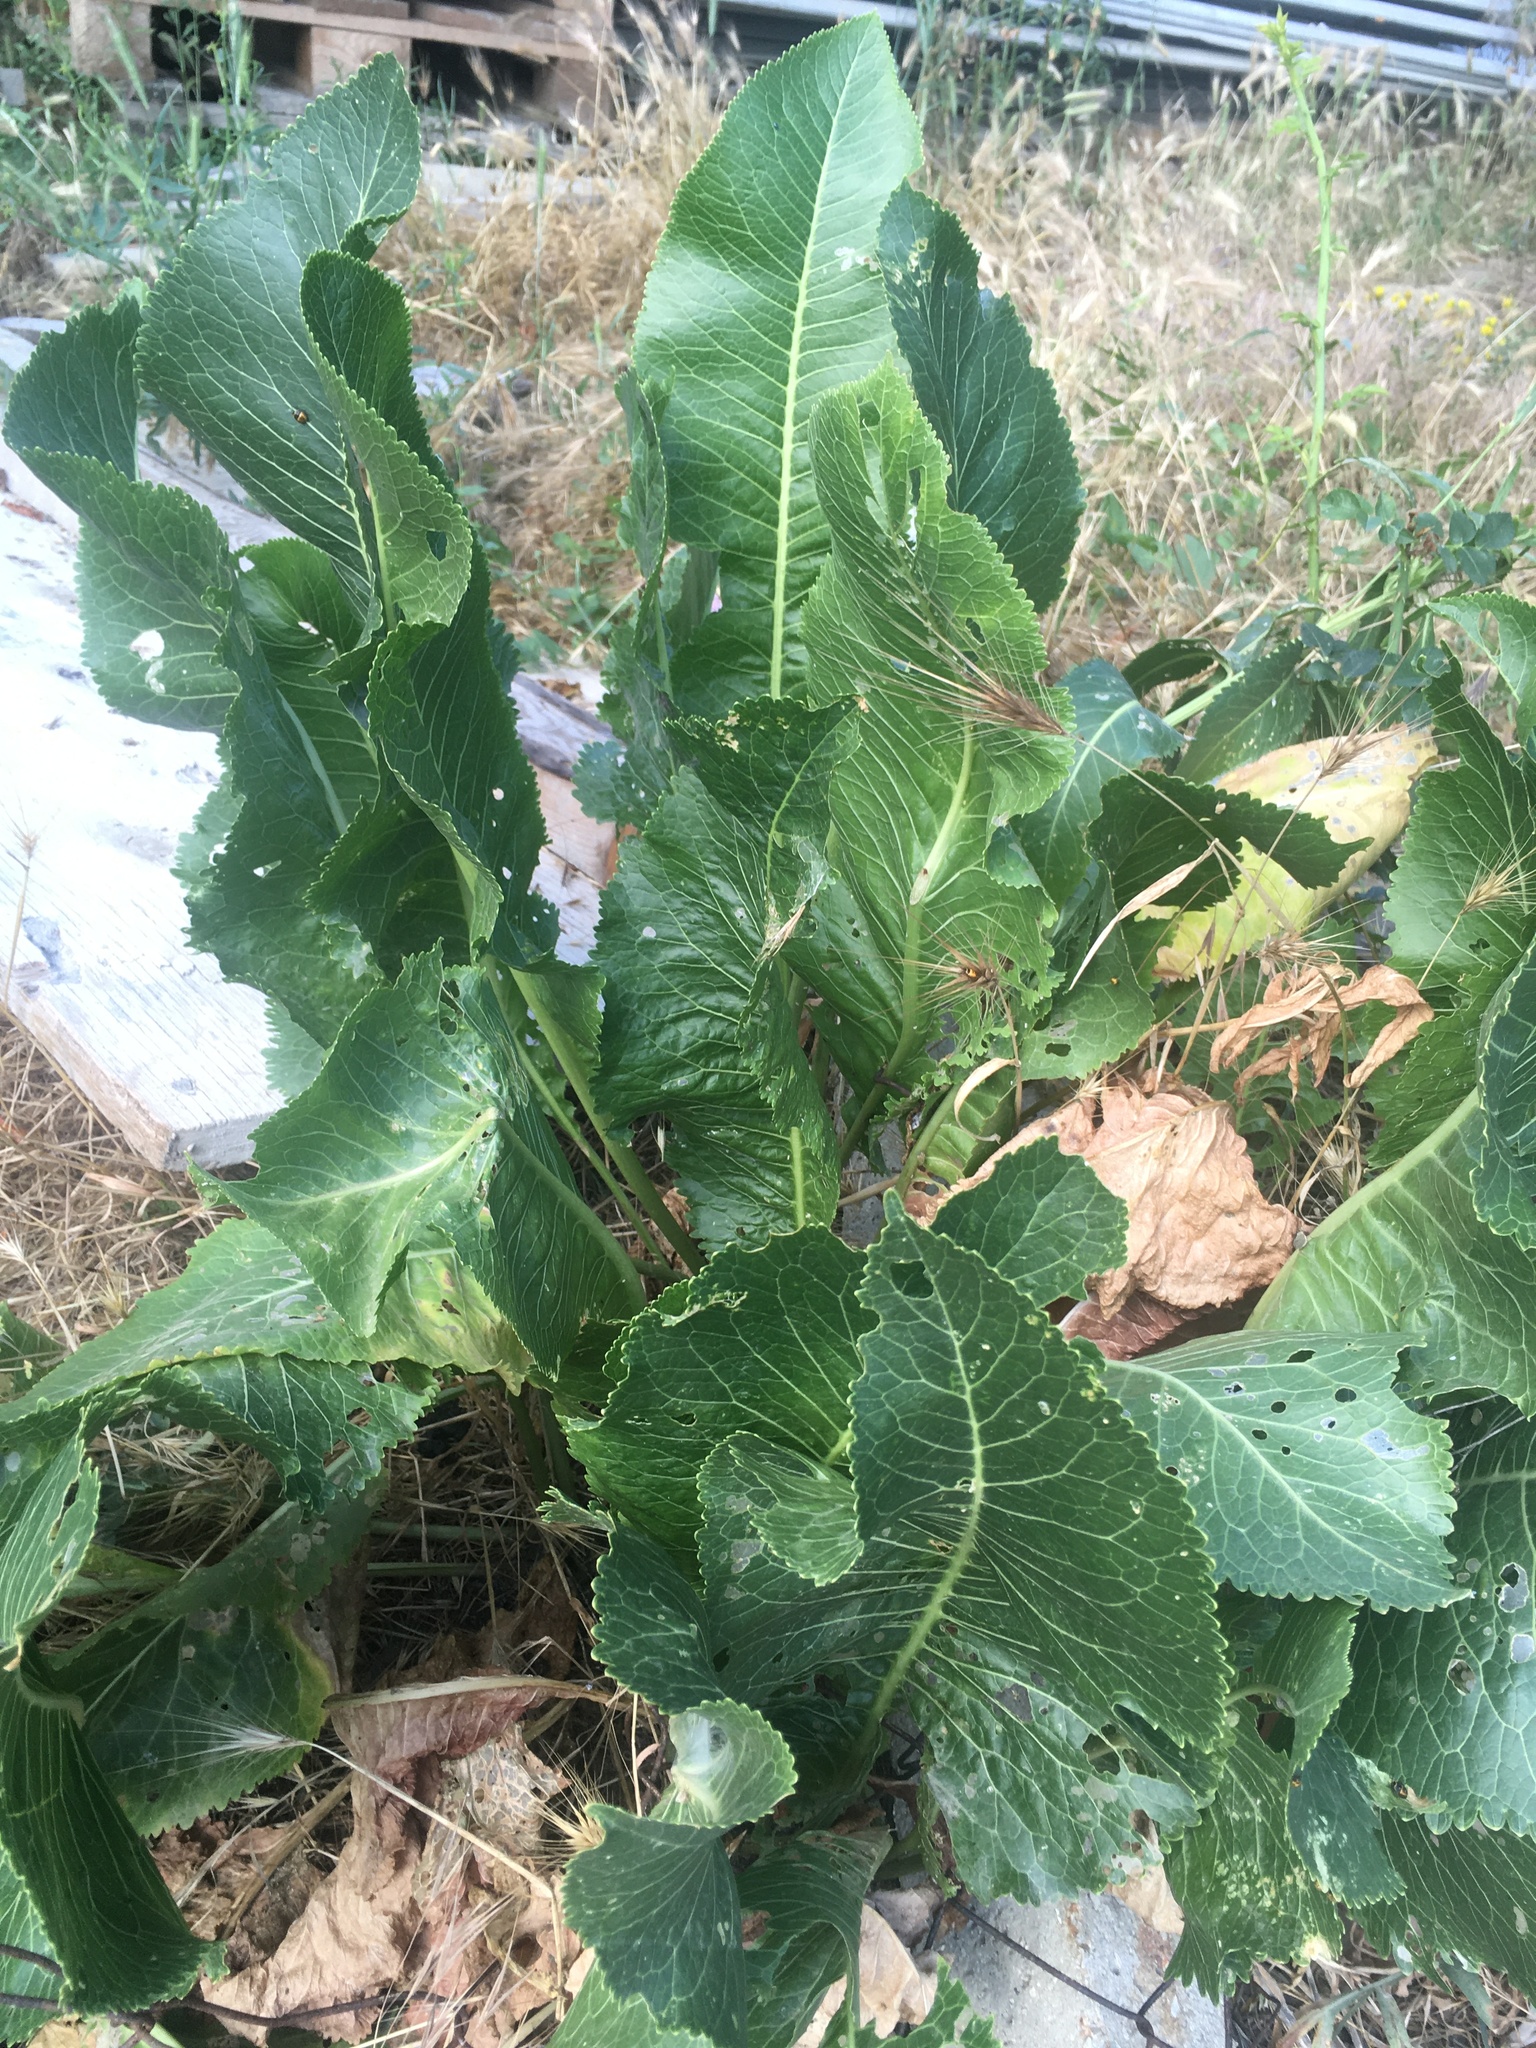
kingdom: Plantae
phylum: Tracheophyta
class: Magnoliopsida
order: Brassicales
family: Brassicaceae
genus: Armoracia
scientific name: Armoracia rusticana
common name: Horseradish
